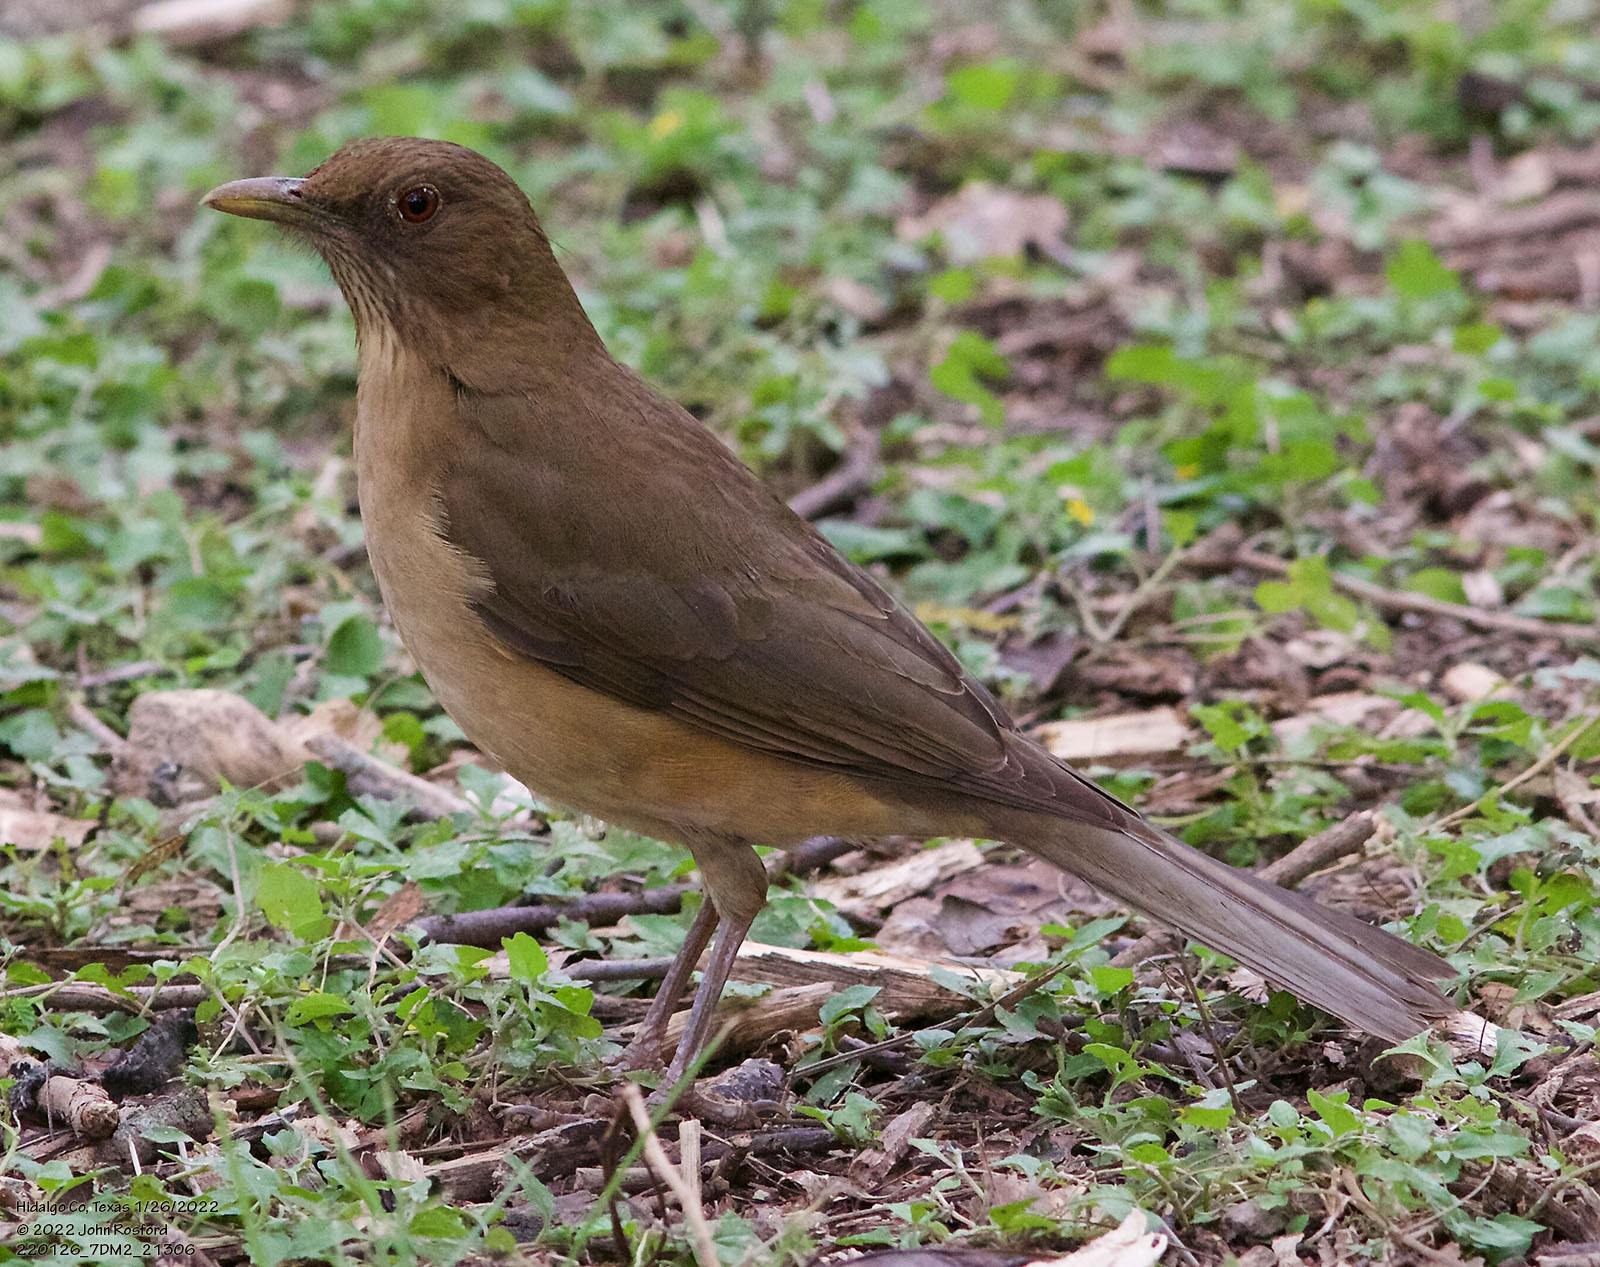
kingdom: Animalia
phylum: Chordata
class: Aves
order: Passeriformes
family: Turdidae
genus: Turdus
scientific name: Turdus grayi
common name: Clay-colored thrush
